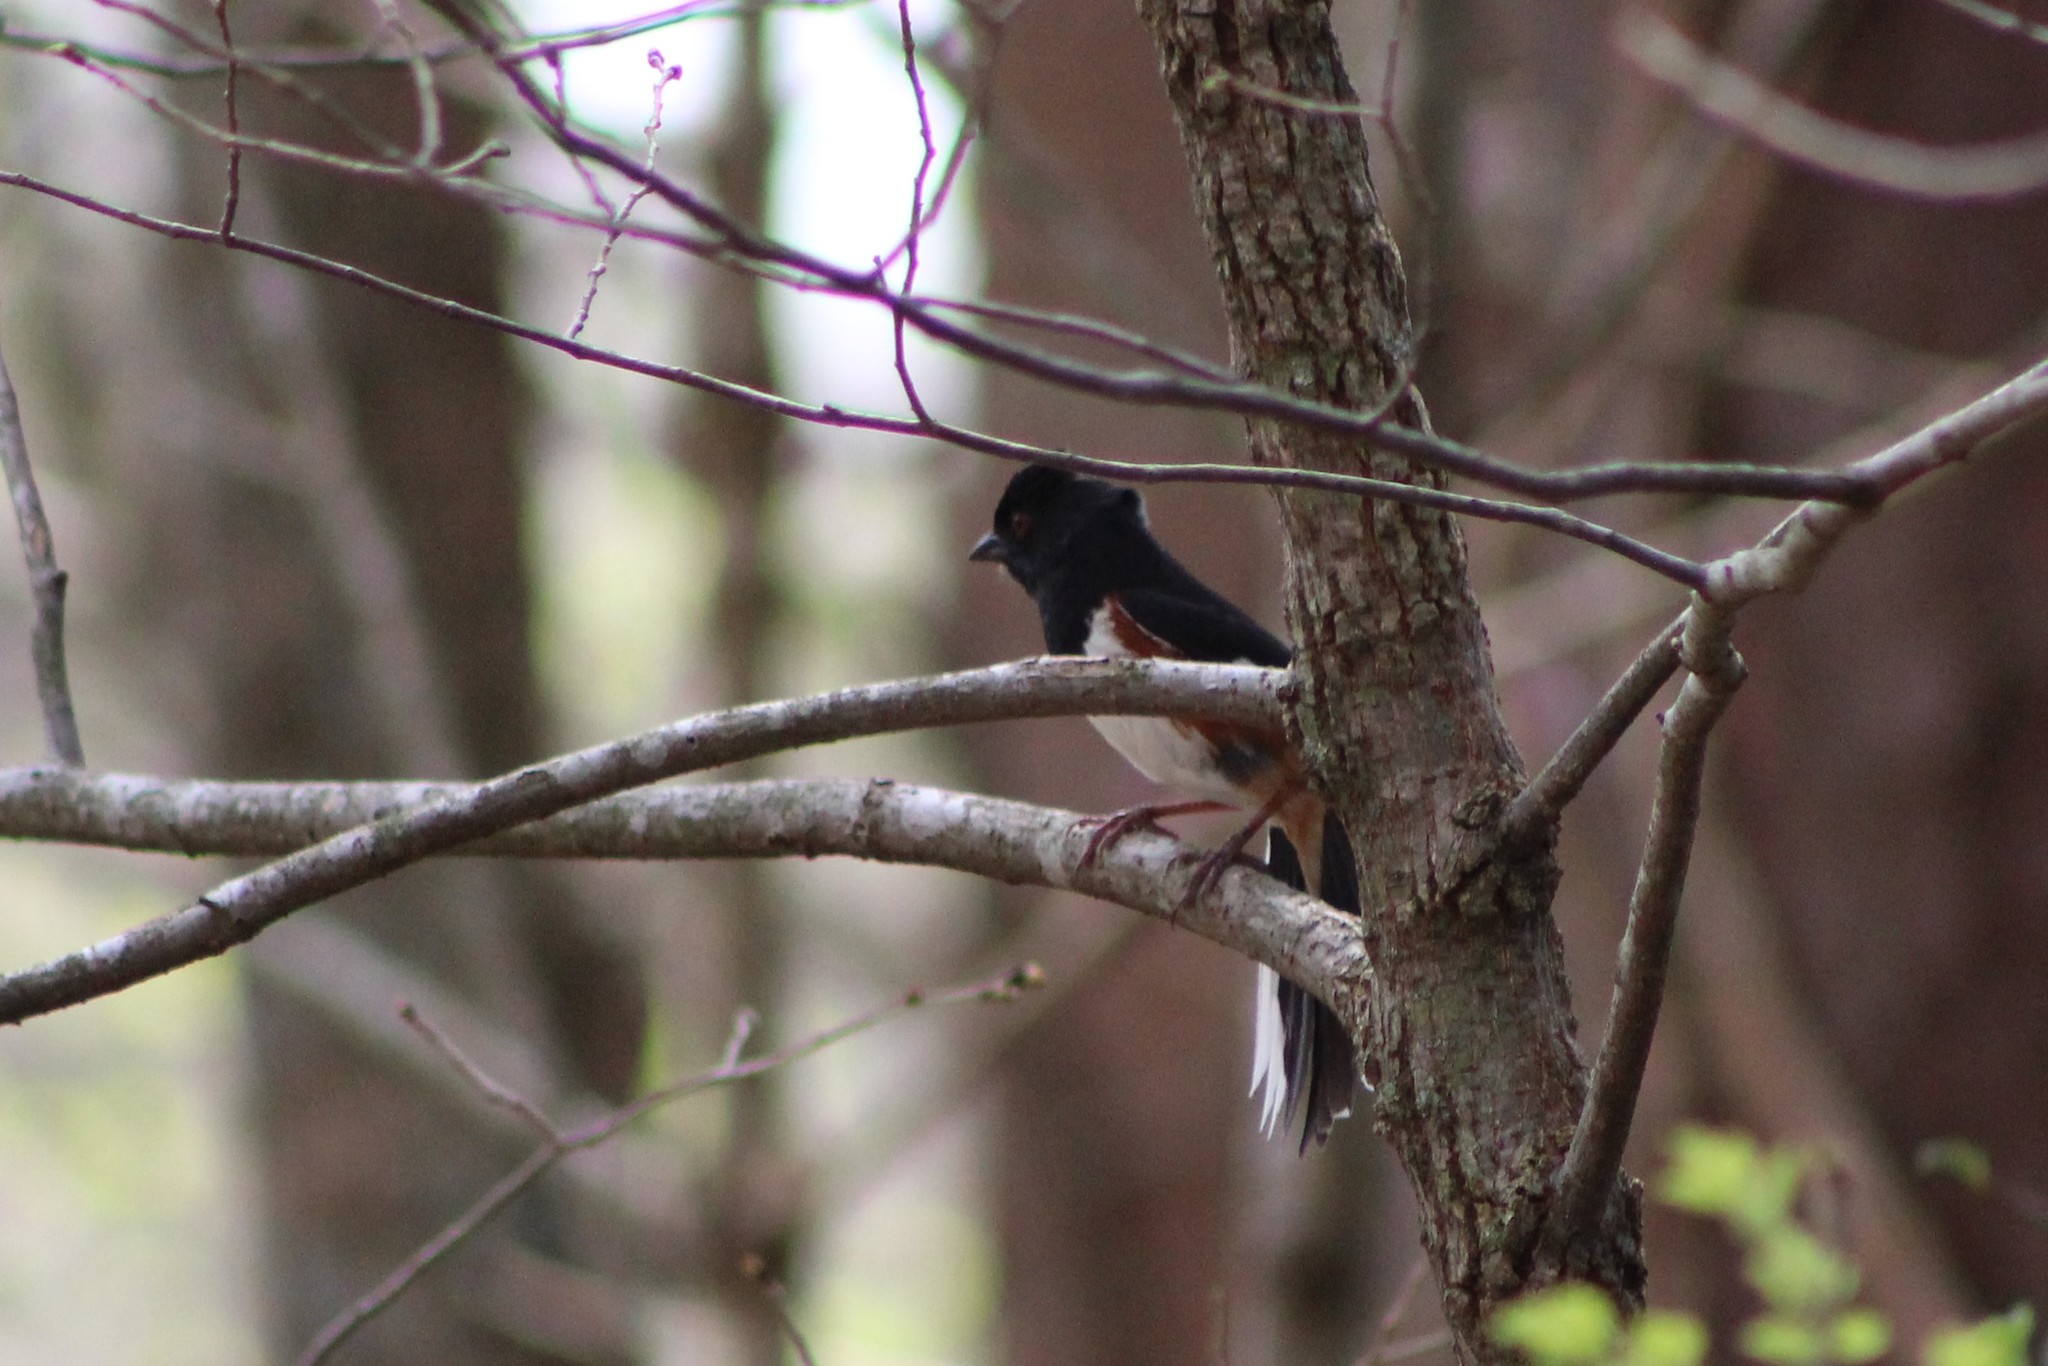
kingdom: Animalia
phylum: Chordata
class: Aves
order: Passeriformes
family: Passerellidae
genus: Pipilo
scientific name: Pipilo erythrophthalmus
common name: Eastern towhee
